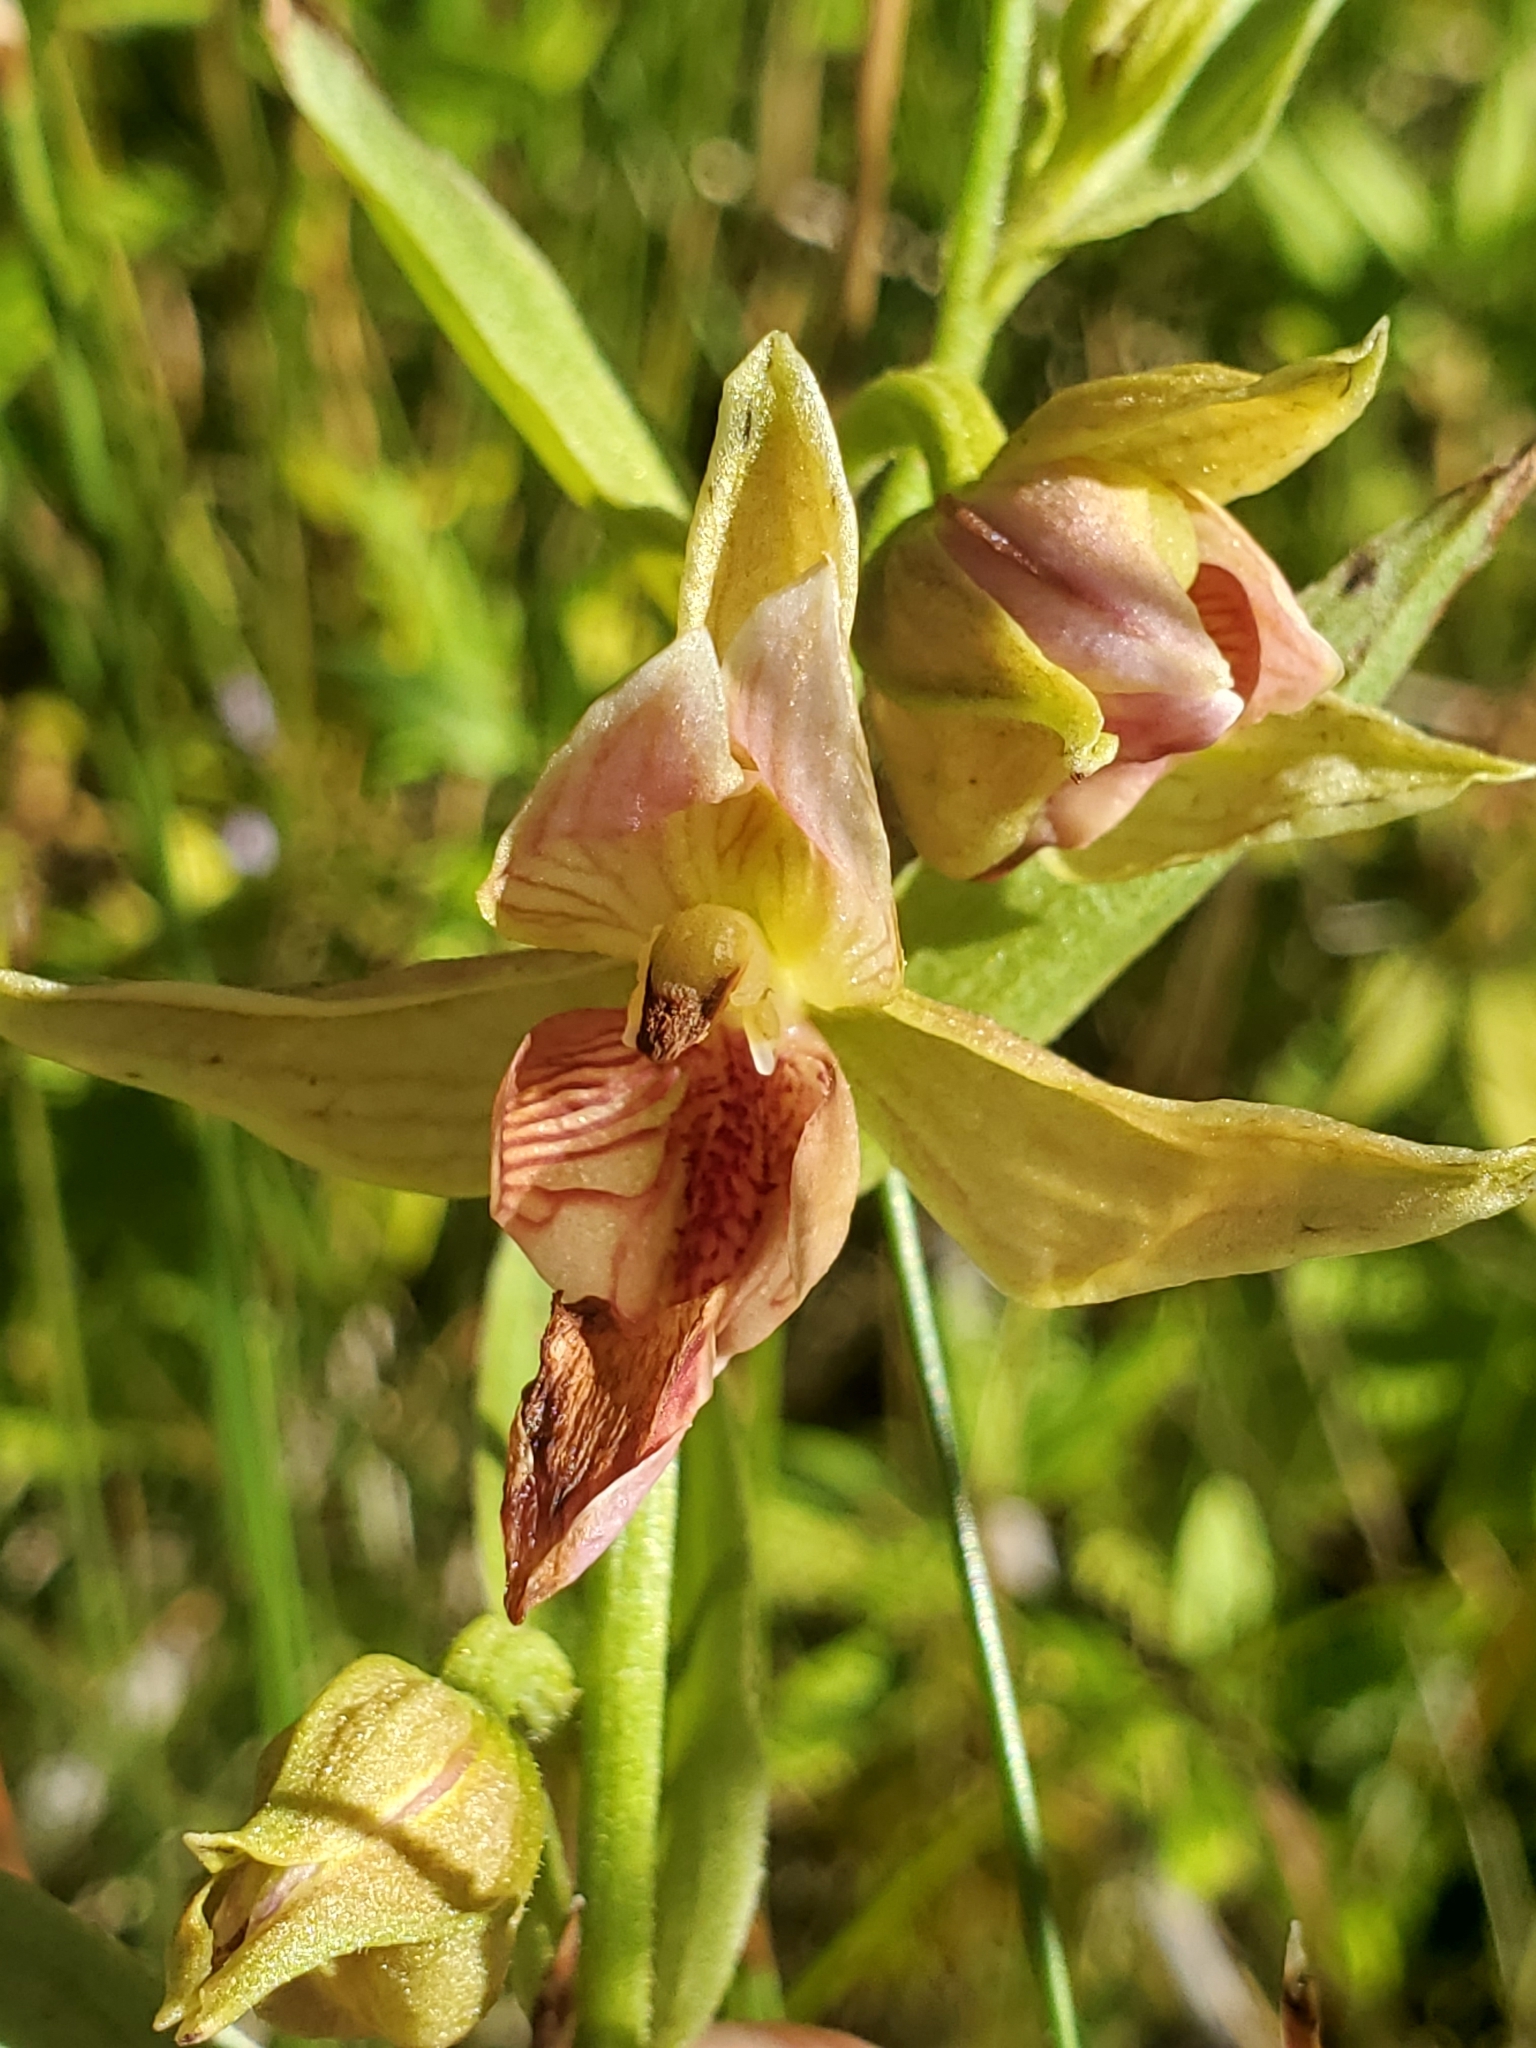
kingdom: Plantae
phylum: Tracheophyta
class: Liliopsida
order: Asparagales
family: Orchidaceae
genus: Epipactis
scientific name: Epipactis gigantea
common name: Chatterbox
